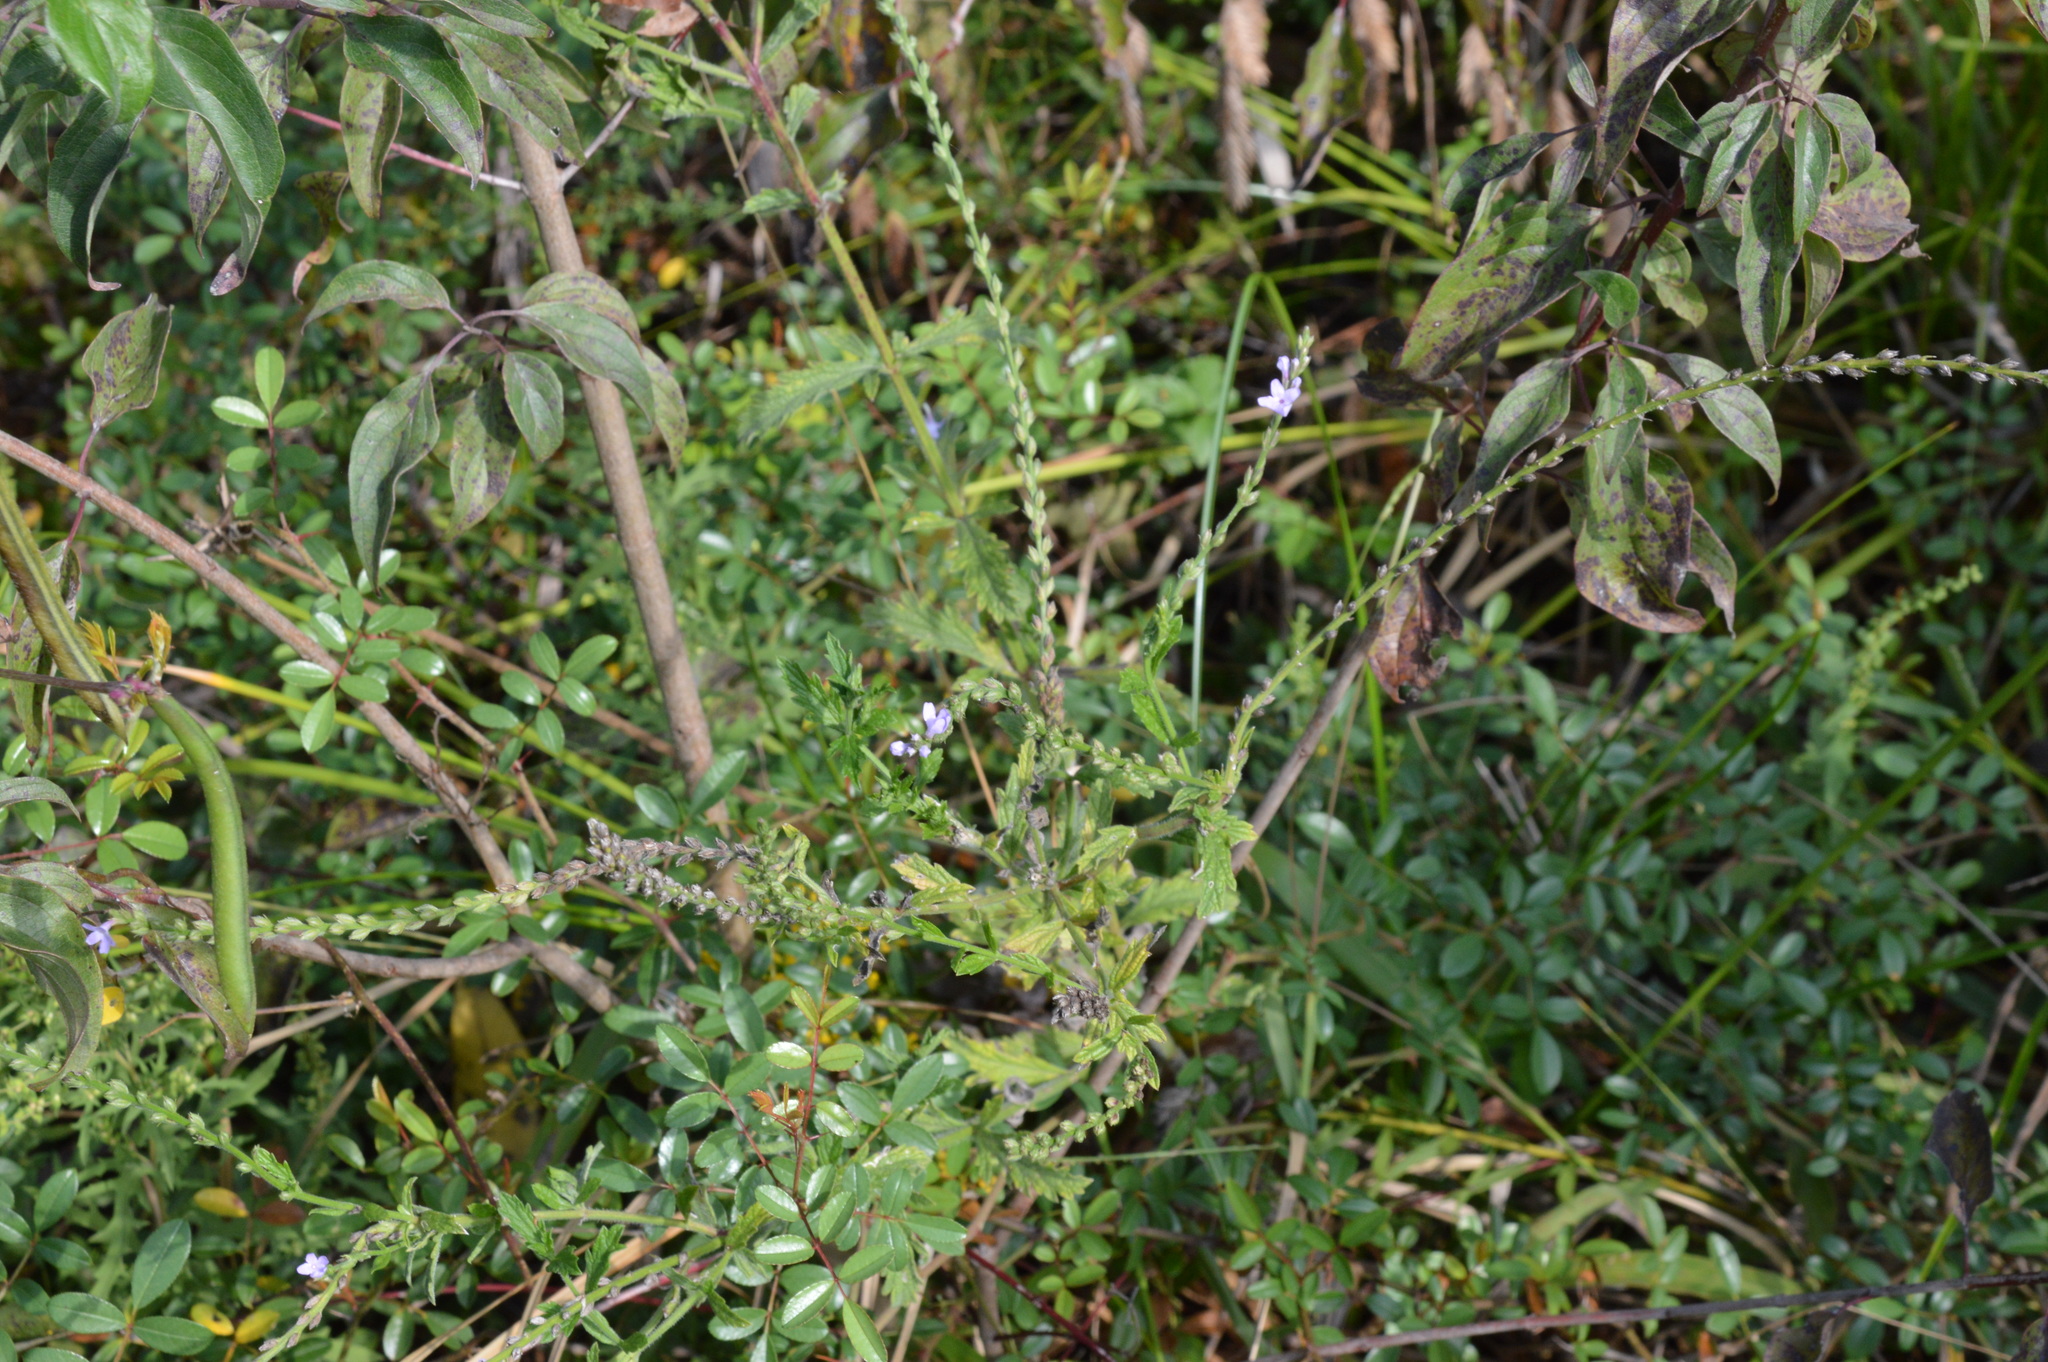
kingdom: Plantae
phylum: Tracheophyta
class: Magnoliopsida
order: Lamiales
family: Verbenaceae
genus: Verbena
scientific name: Verbena xutha
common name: Gulf vervain
